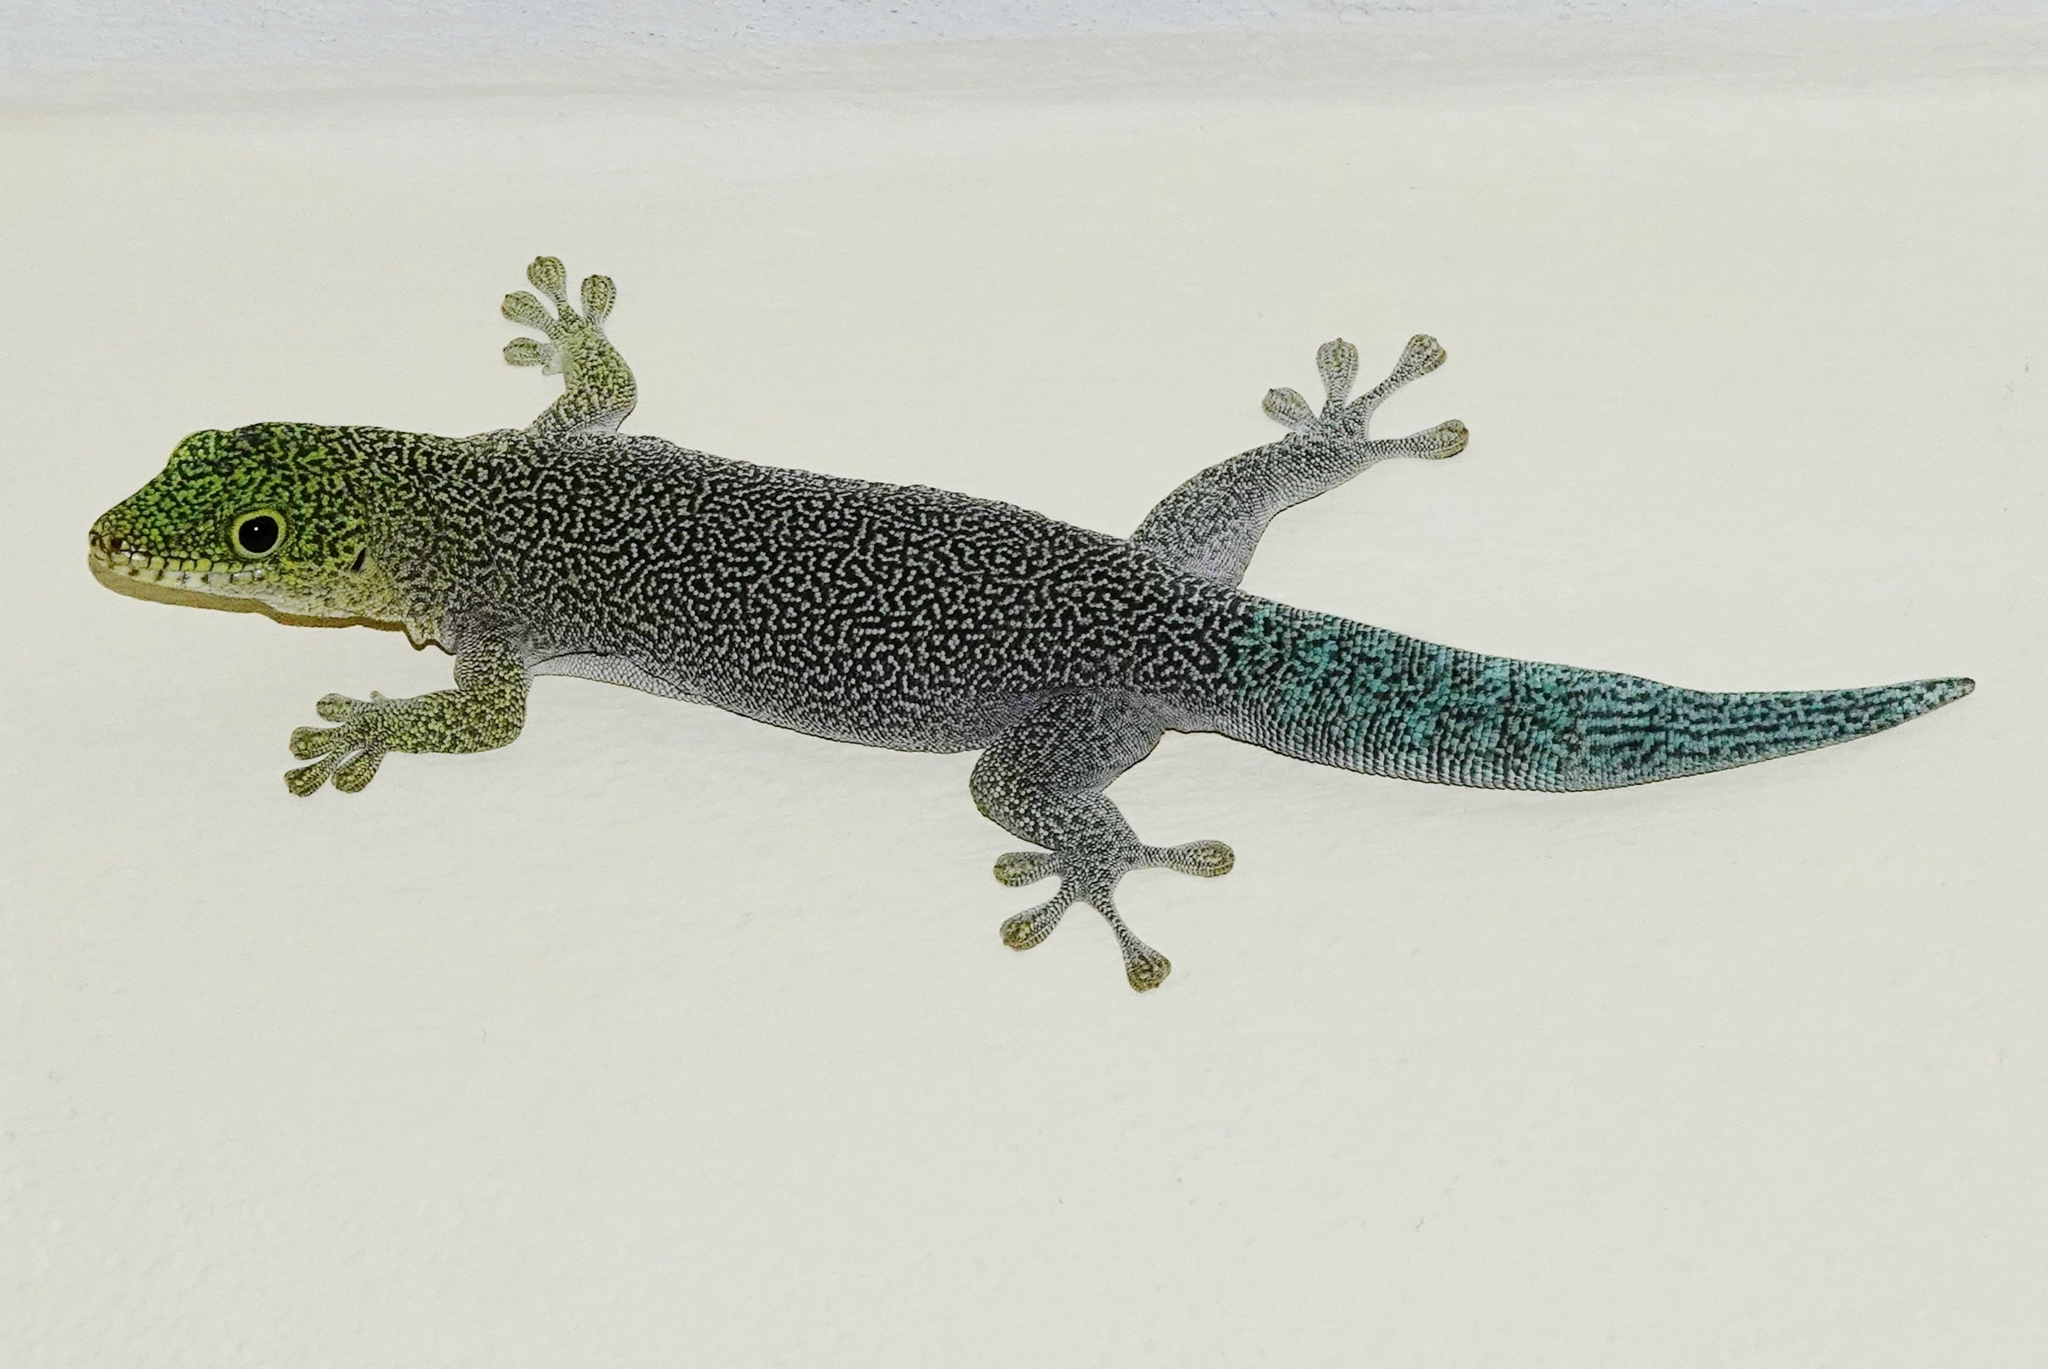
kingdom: Animalia
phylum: Chordata
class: Squamata
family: Gekkonidae
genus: Phelsuma
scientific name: Phelsuma standingi
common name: Standing's day gecko
